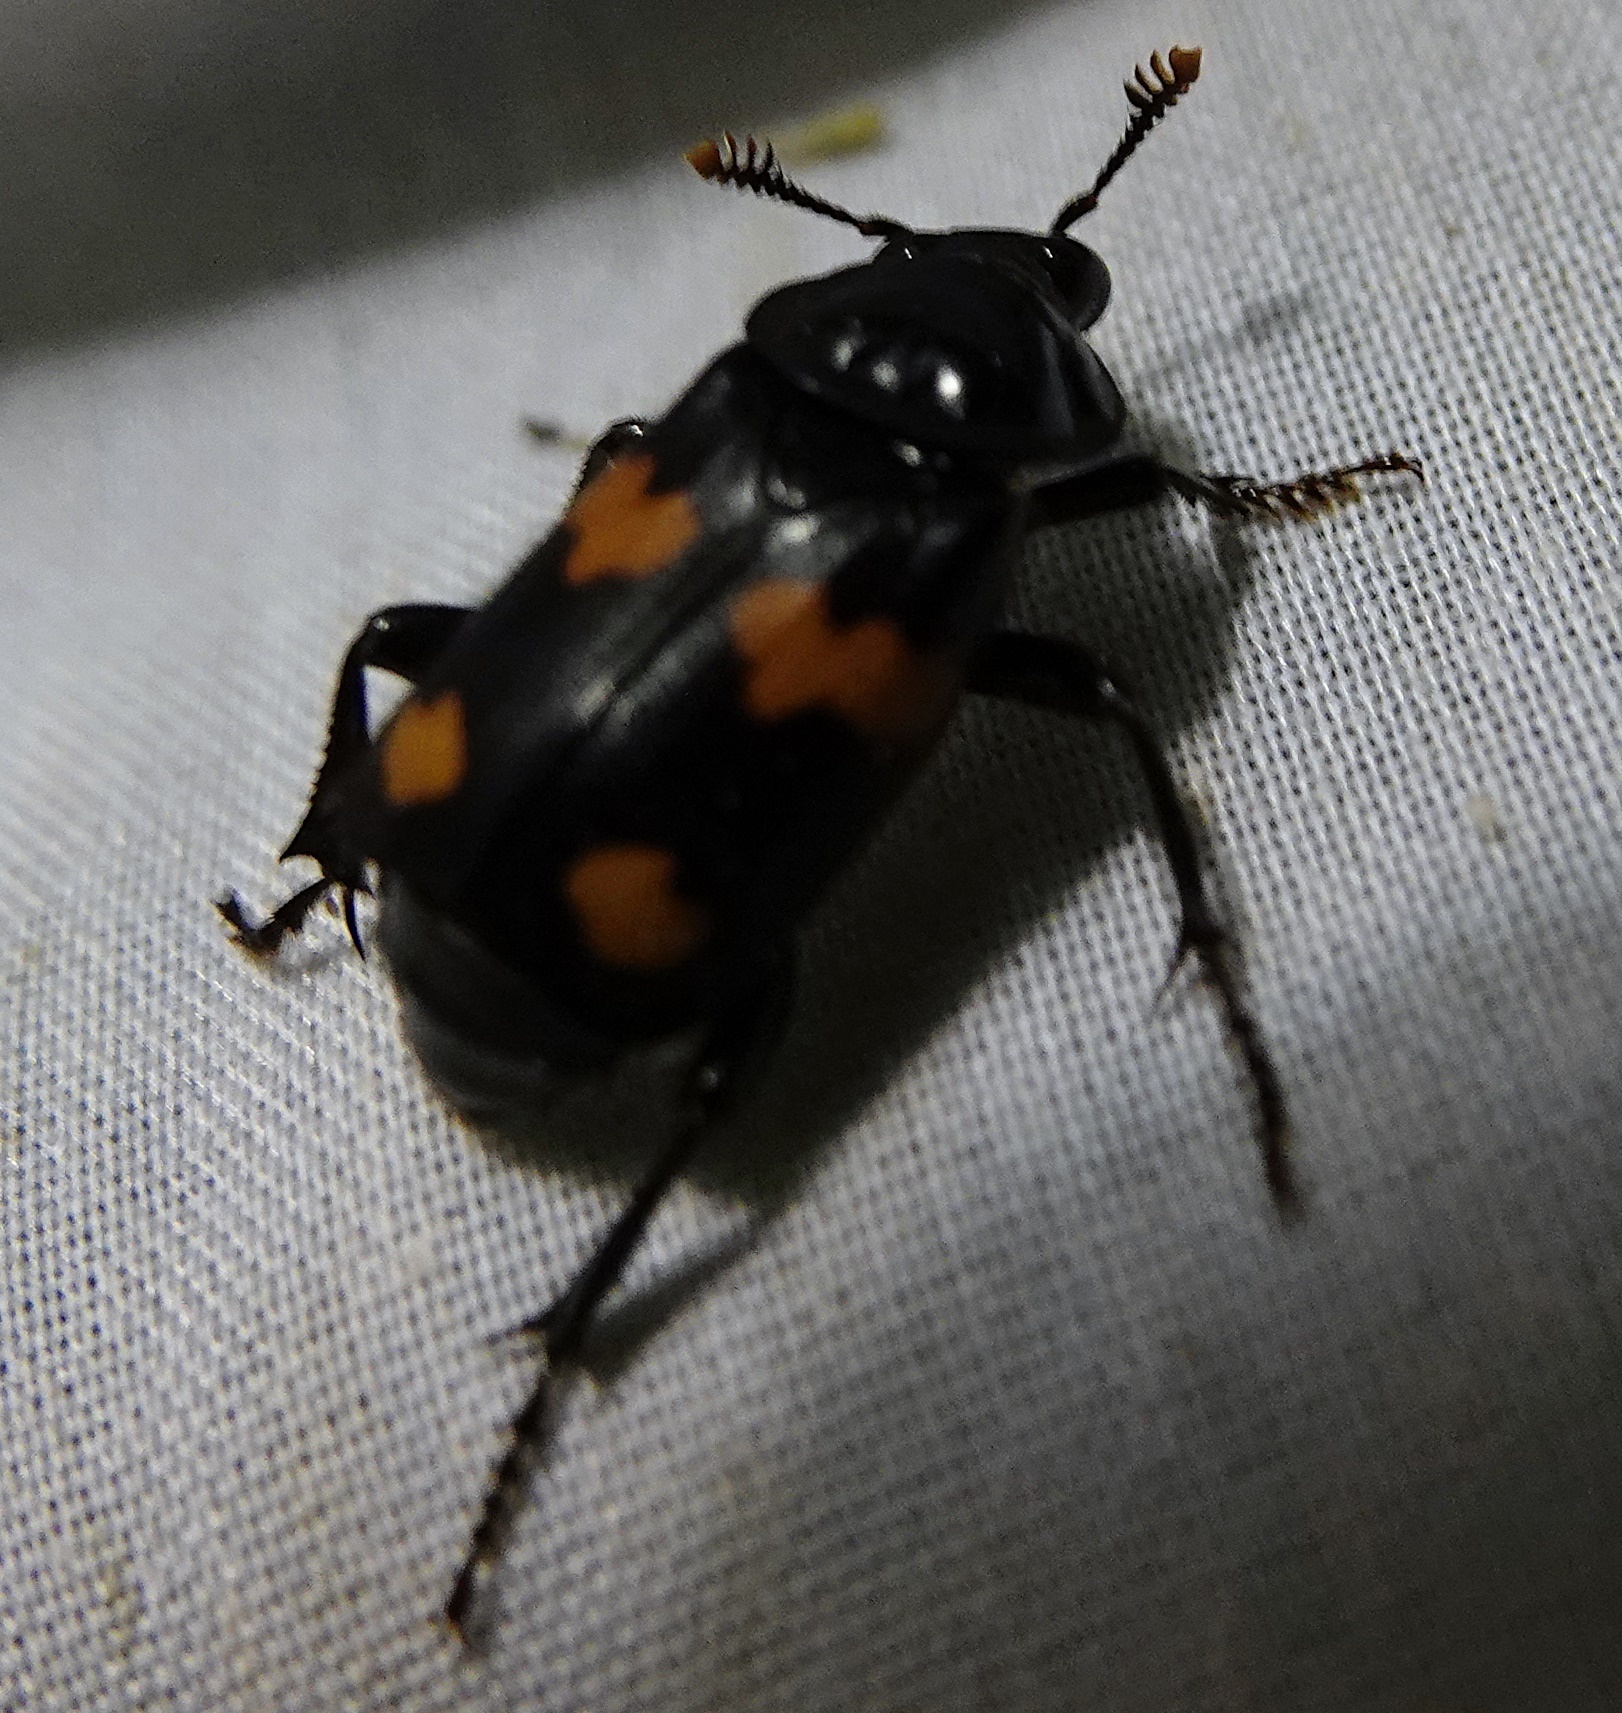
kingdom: Animalia
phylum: Arthropoda
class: Insecta
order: Coleoptera
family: Staphylinidae
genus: Nicrophorus
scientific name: Nicrophorus orbicollis
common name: Roundneck sexton beetle
